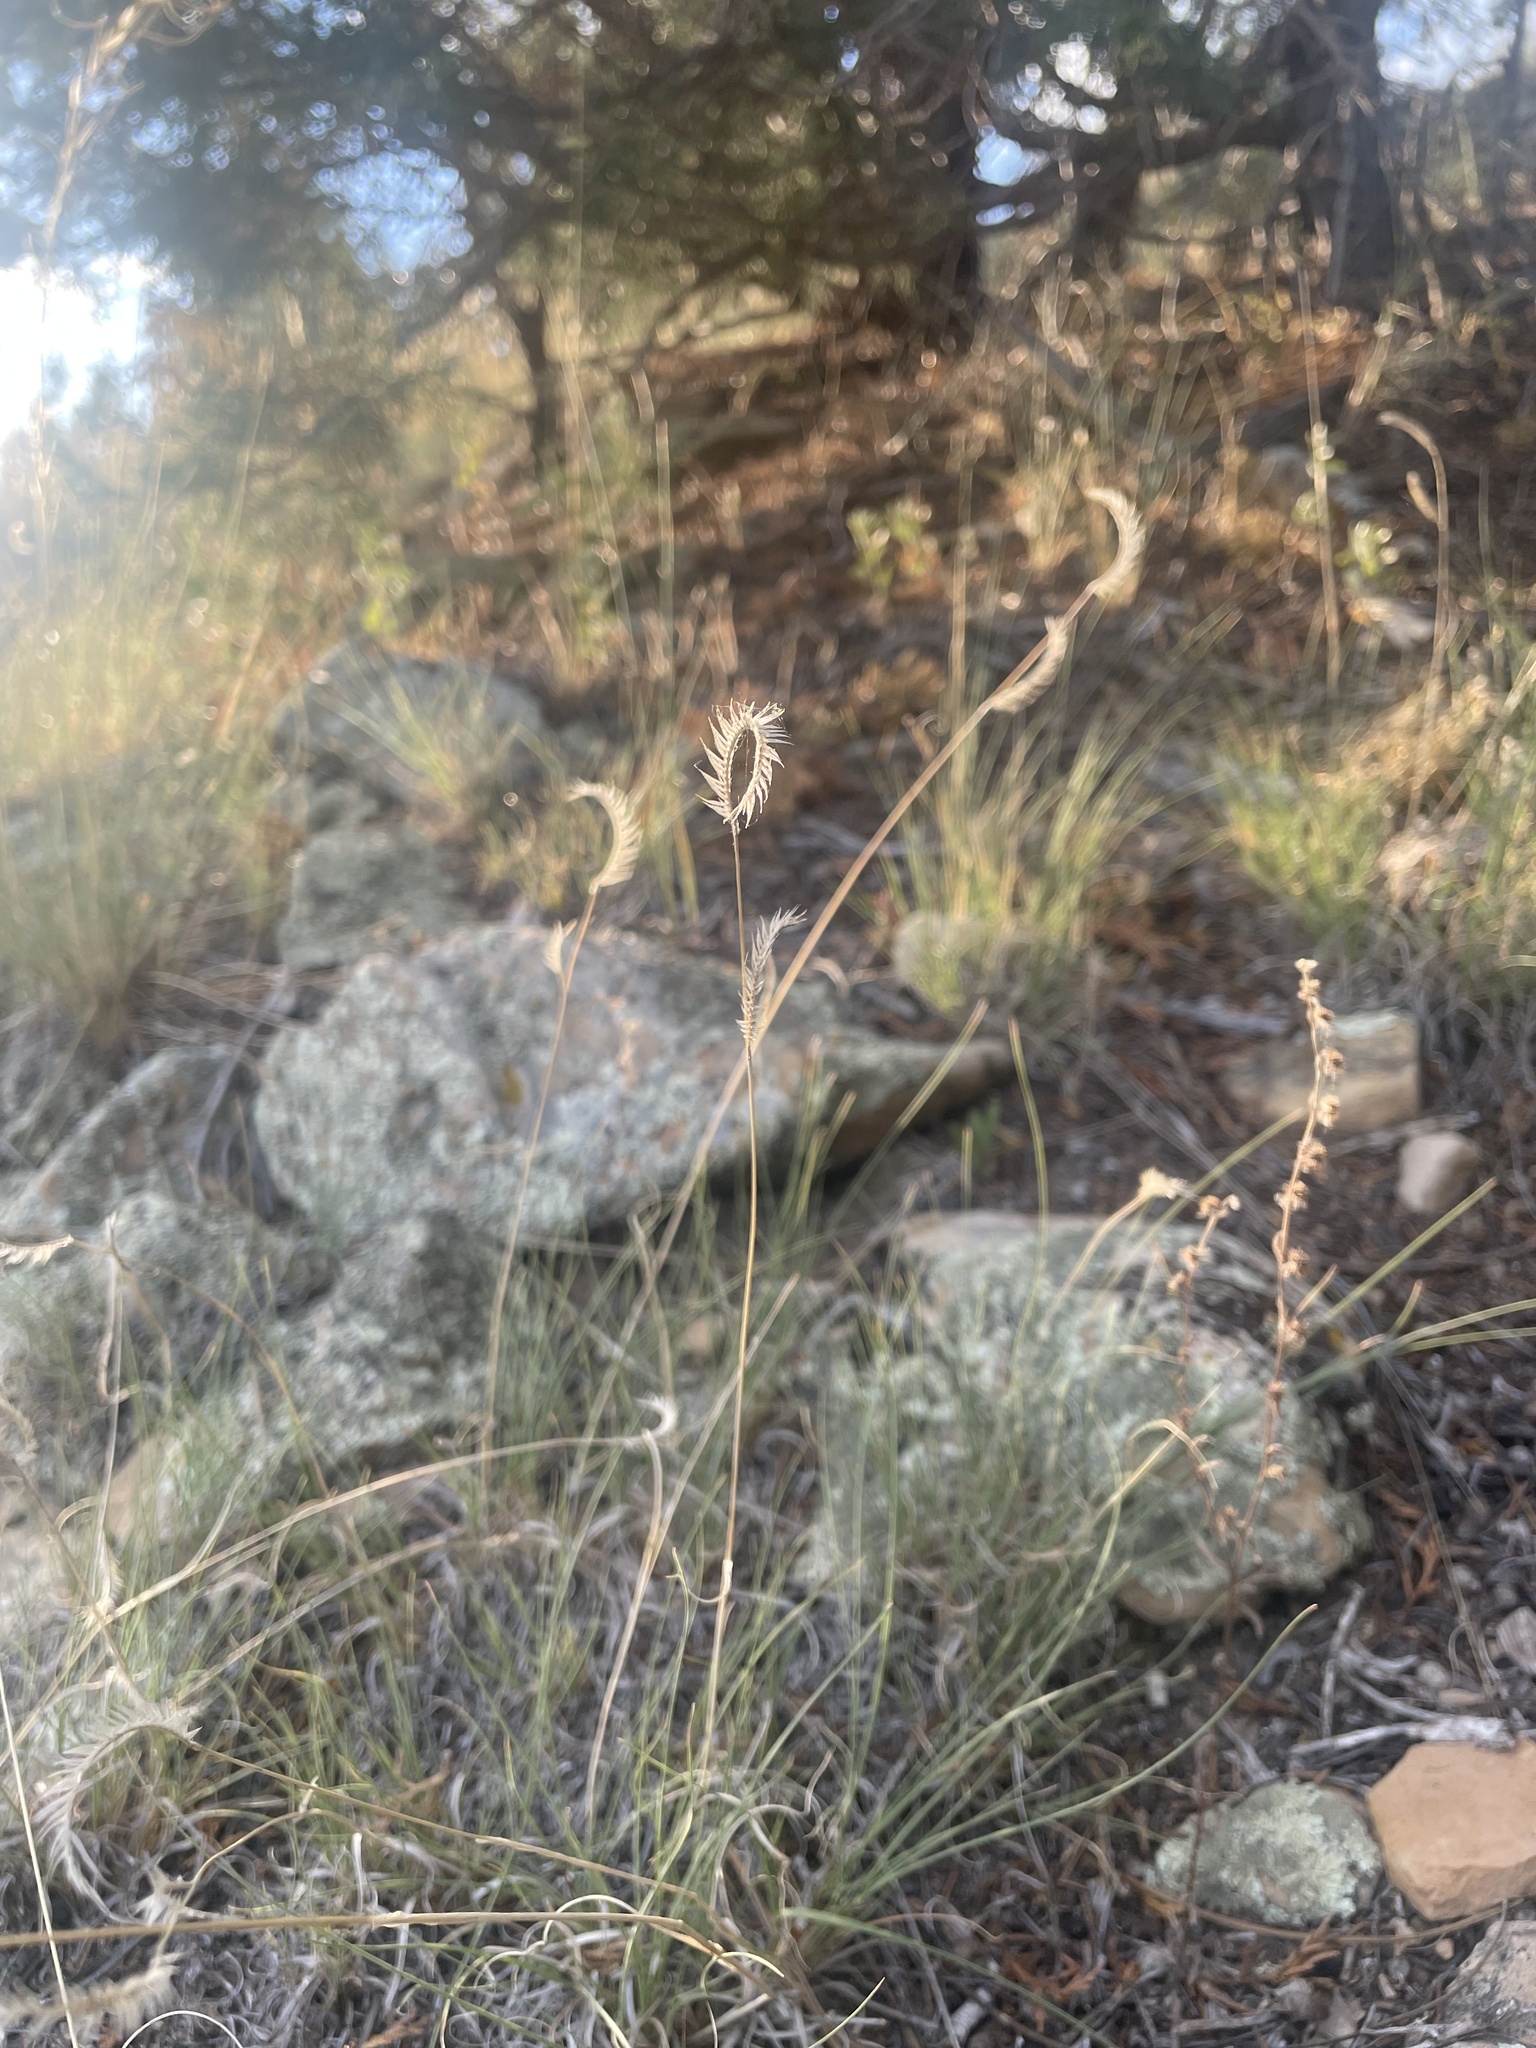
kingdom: Plantae
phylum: Tracheophyta
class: Liliopsida
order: Poales
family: Poaceae
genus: Bouteloua
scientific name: Bouteloua gracilis
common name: Blue grama
